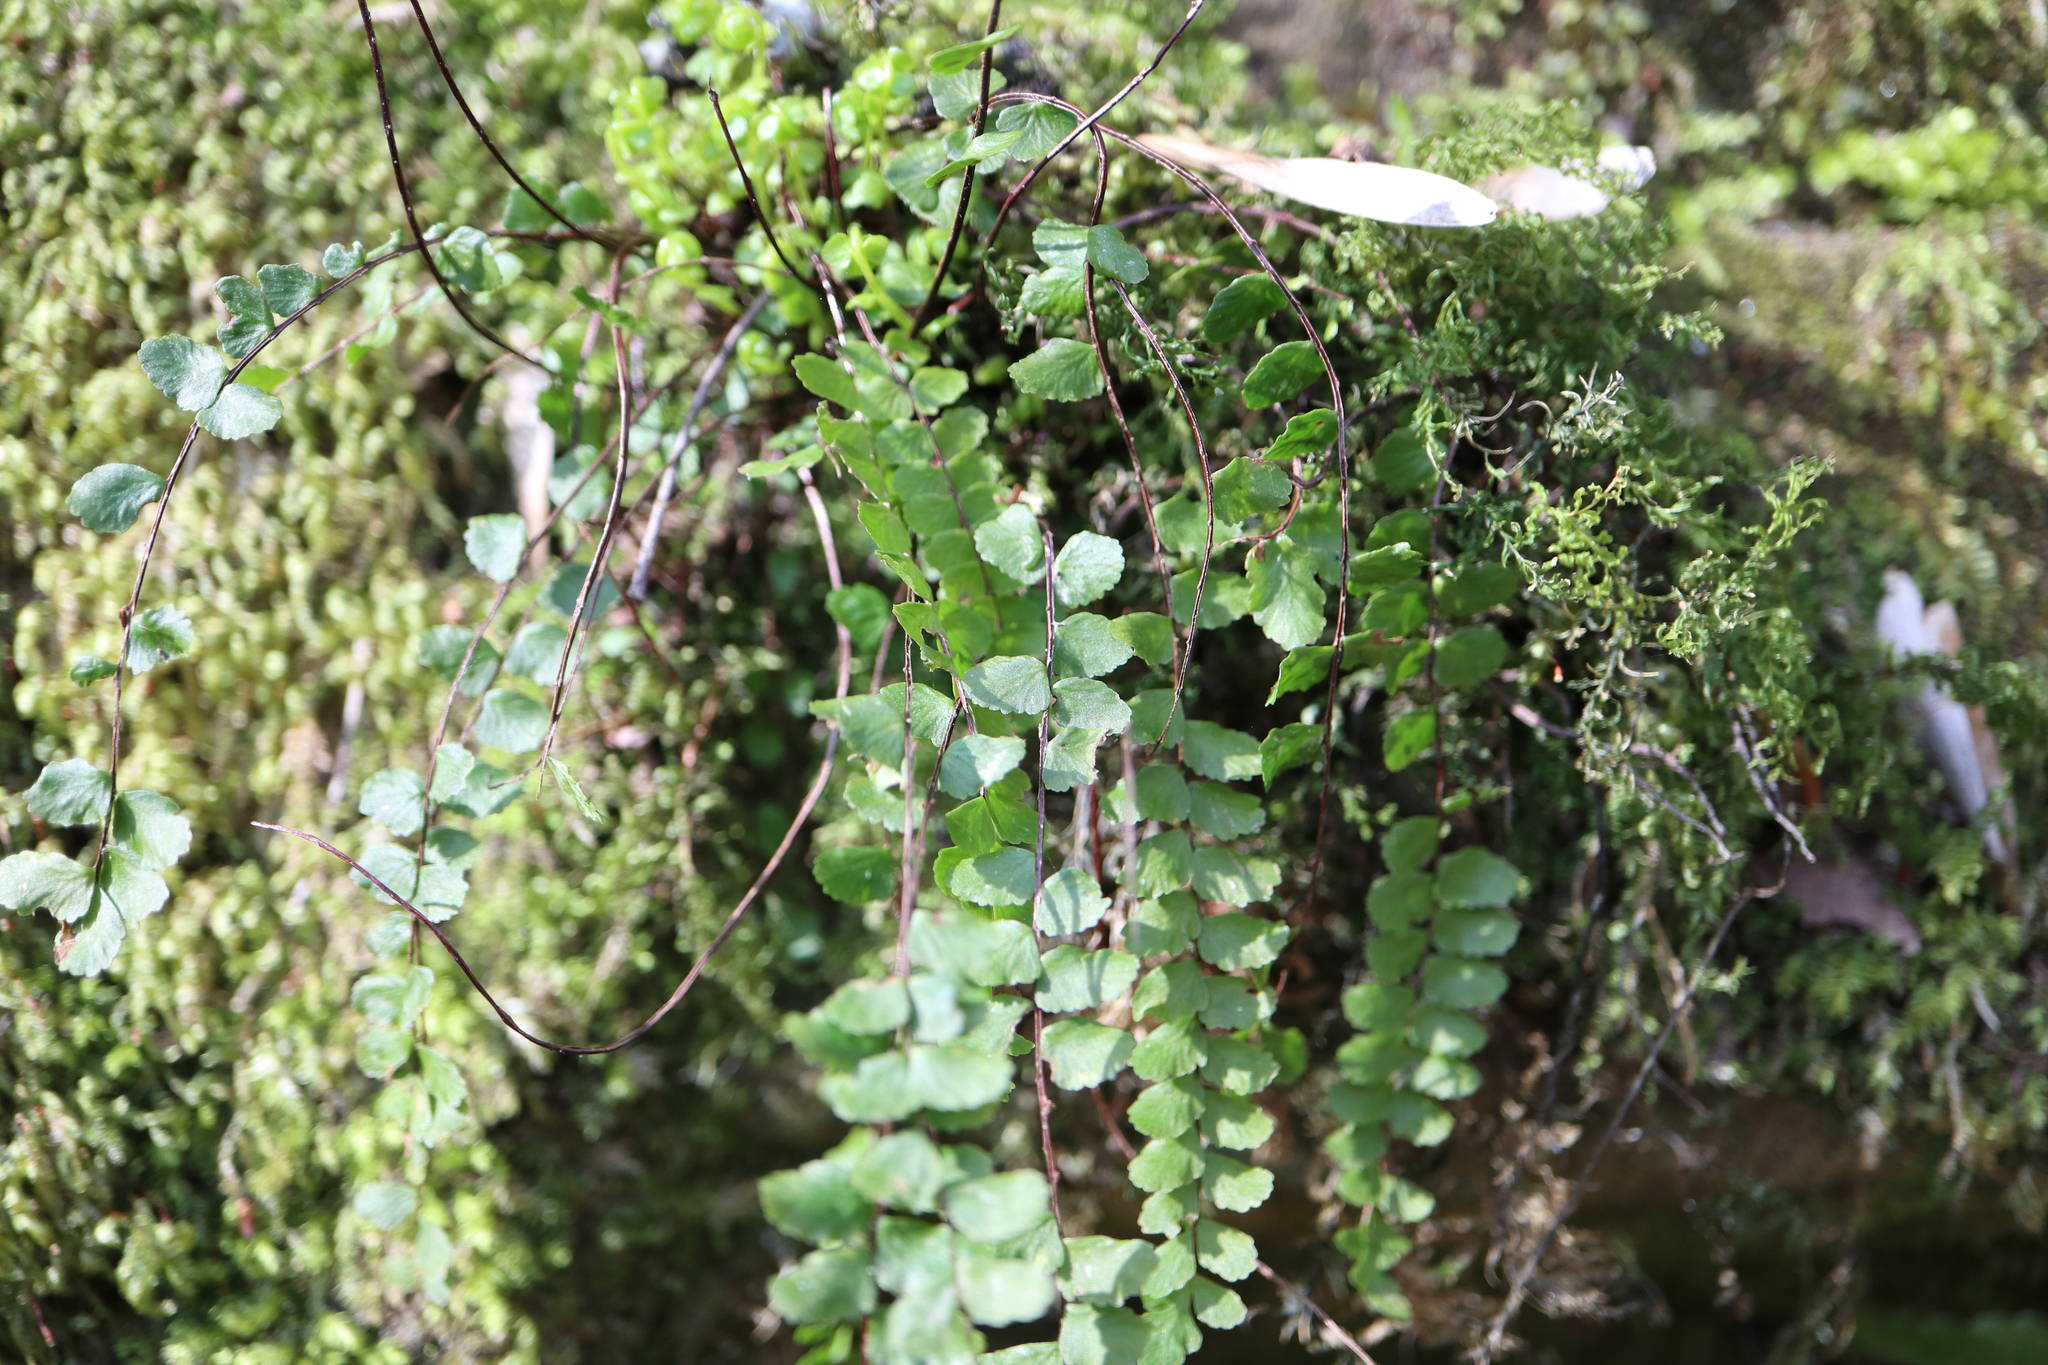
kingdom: Plantae
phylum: Tracheophyta
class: Polypodiopsida
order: Polypodiales
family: Aspleniaceae
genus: Asplenium
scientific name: Asplenium trichomanes
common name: Maidenhair spleenwort
